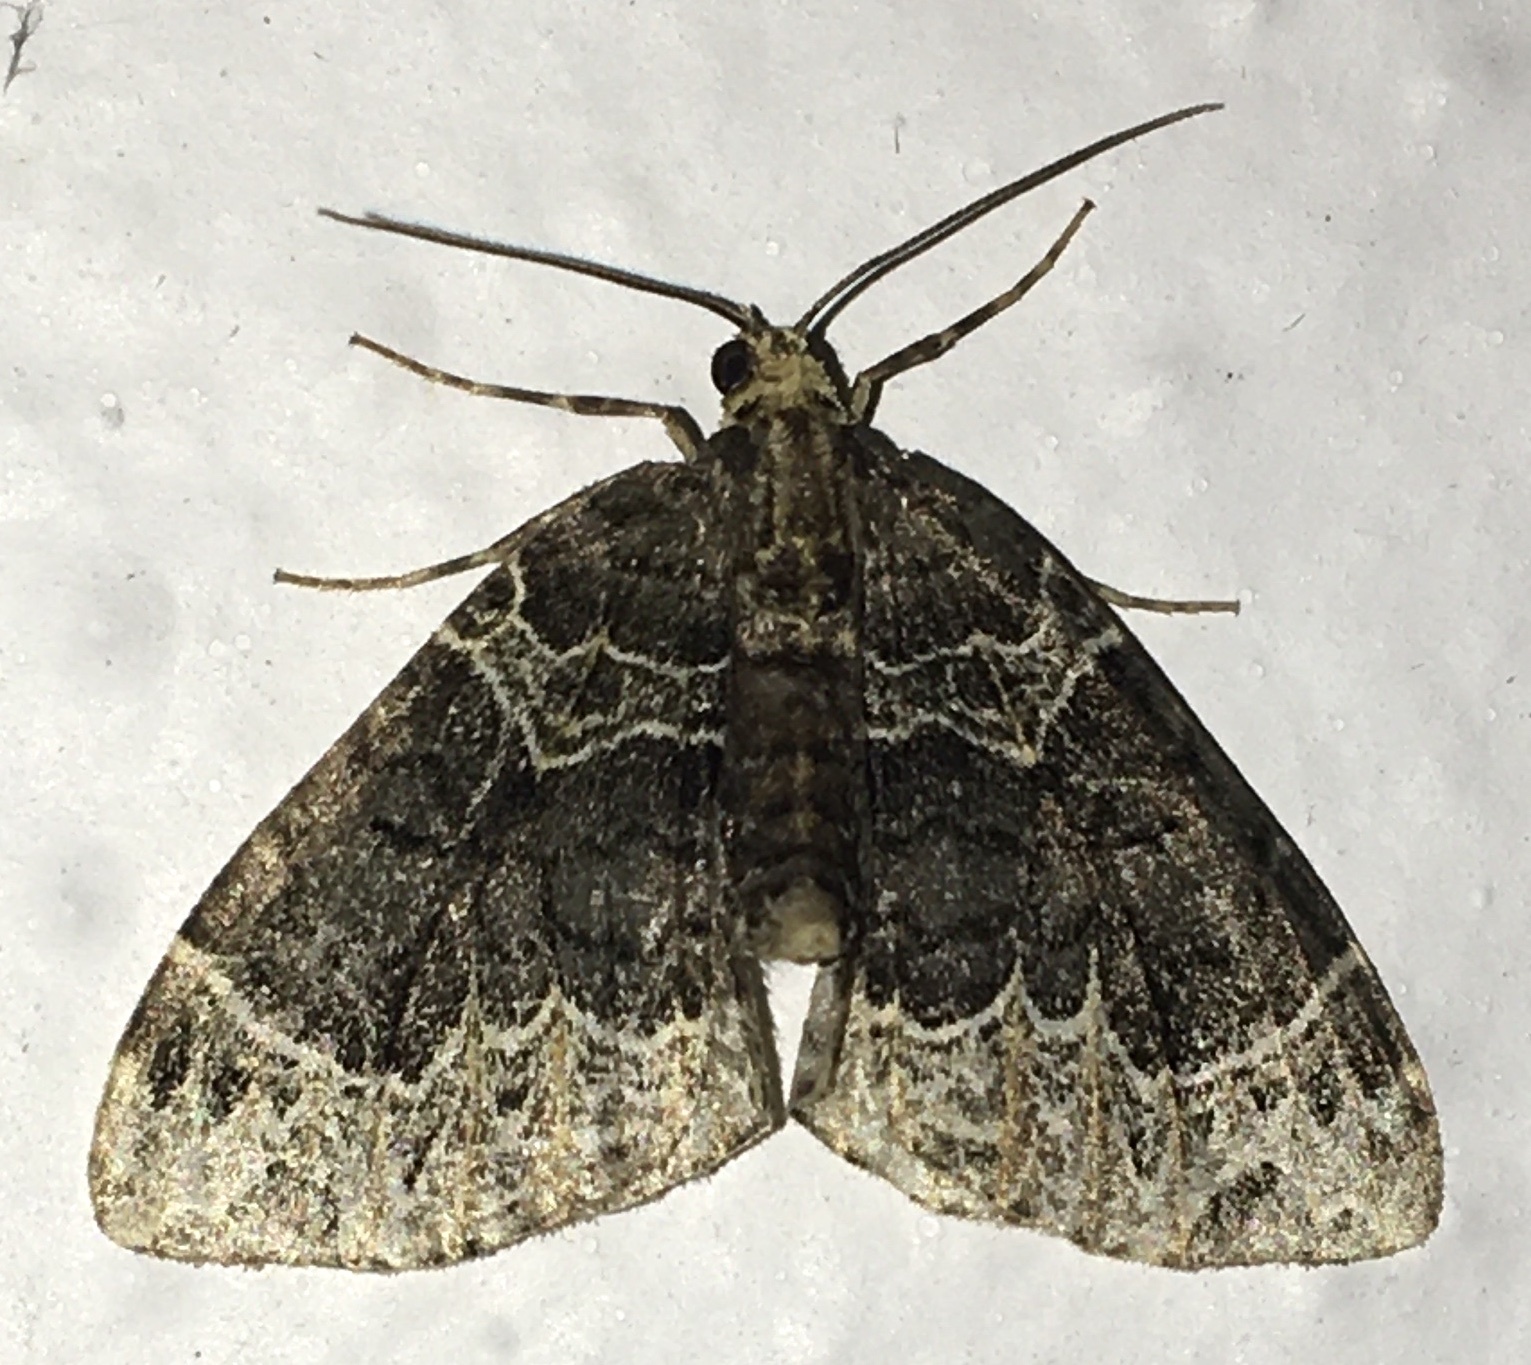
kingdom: Animalia
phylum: Arthropoda
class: Insecta
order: Lepidoptera
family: Geometridae
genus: Ecliptopera
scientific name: Ecliptopera silaceata
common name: Small phoenix
